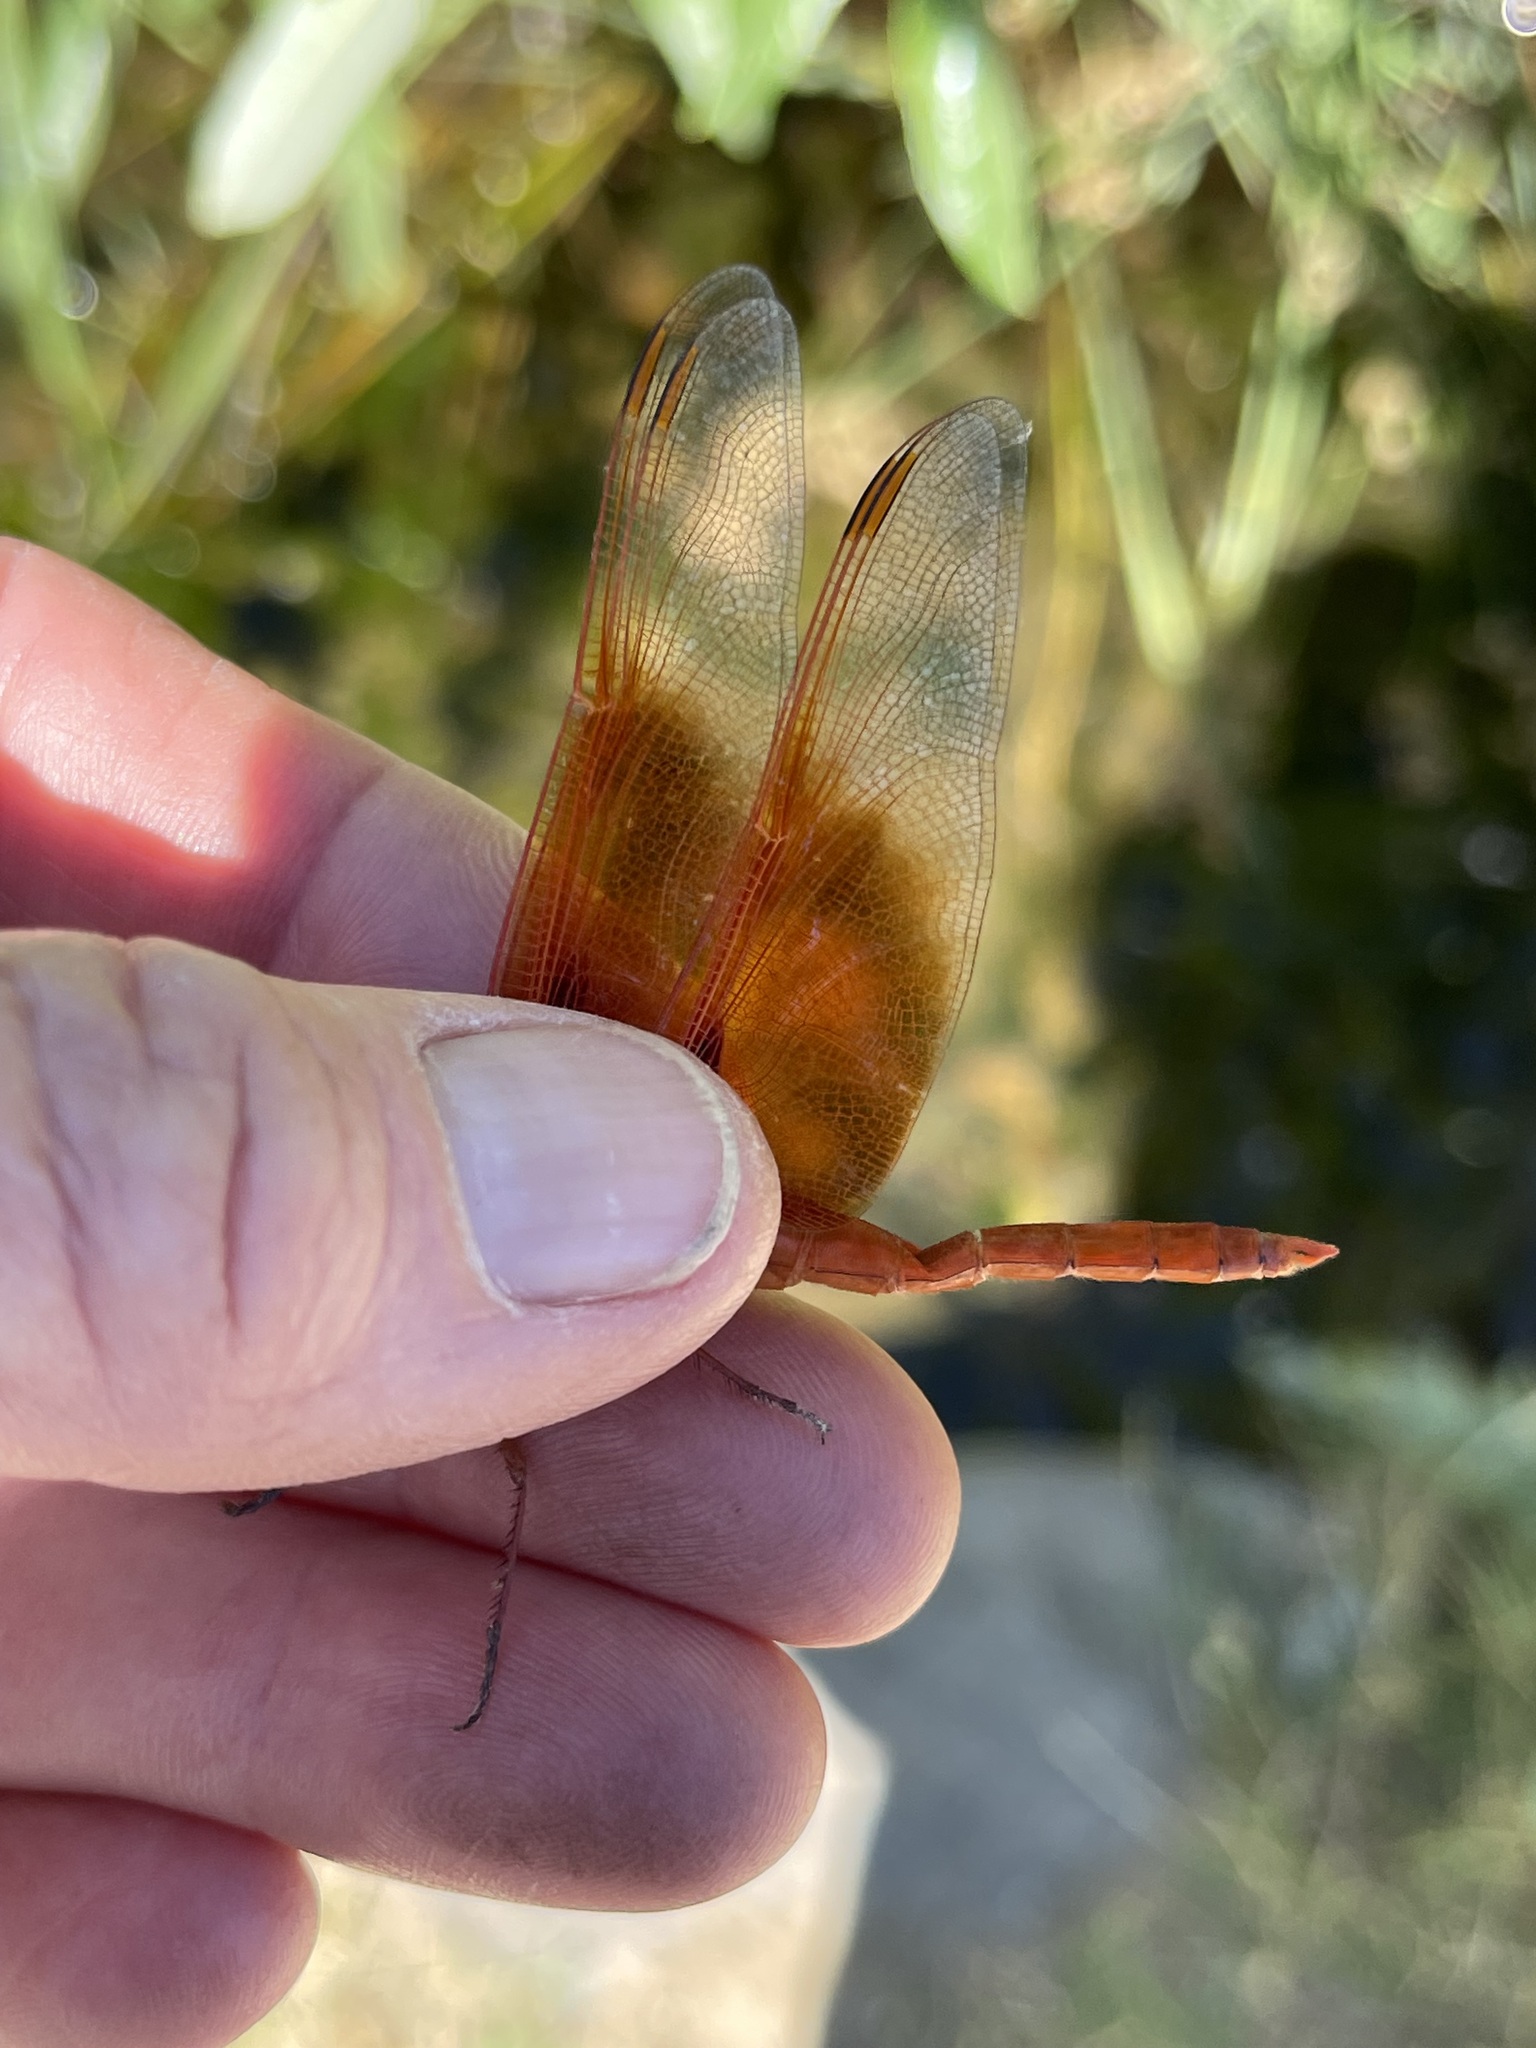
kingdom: Animalia
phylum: Arthropoda
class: Insecta
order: Odonata
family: Libellulidae
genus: Libellula
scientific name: Libellula saturata
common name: Flame skimmer
